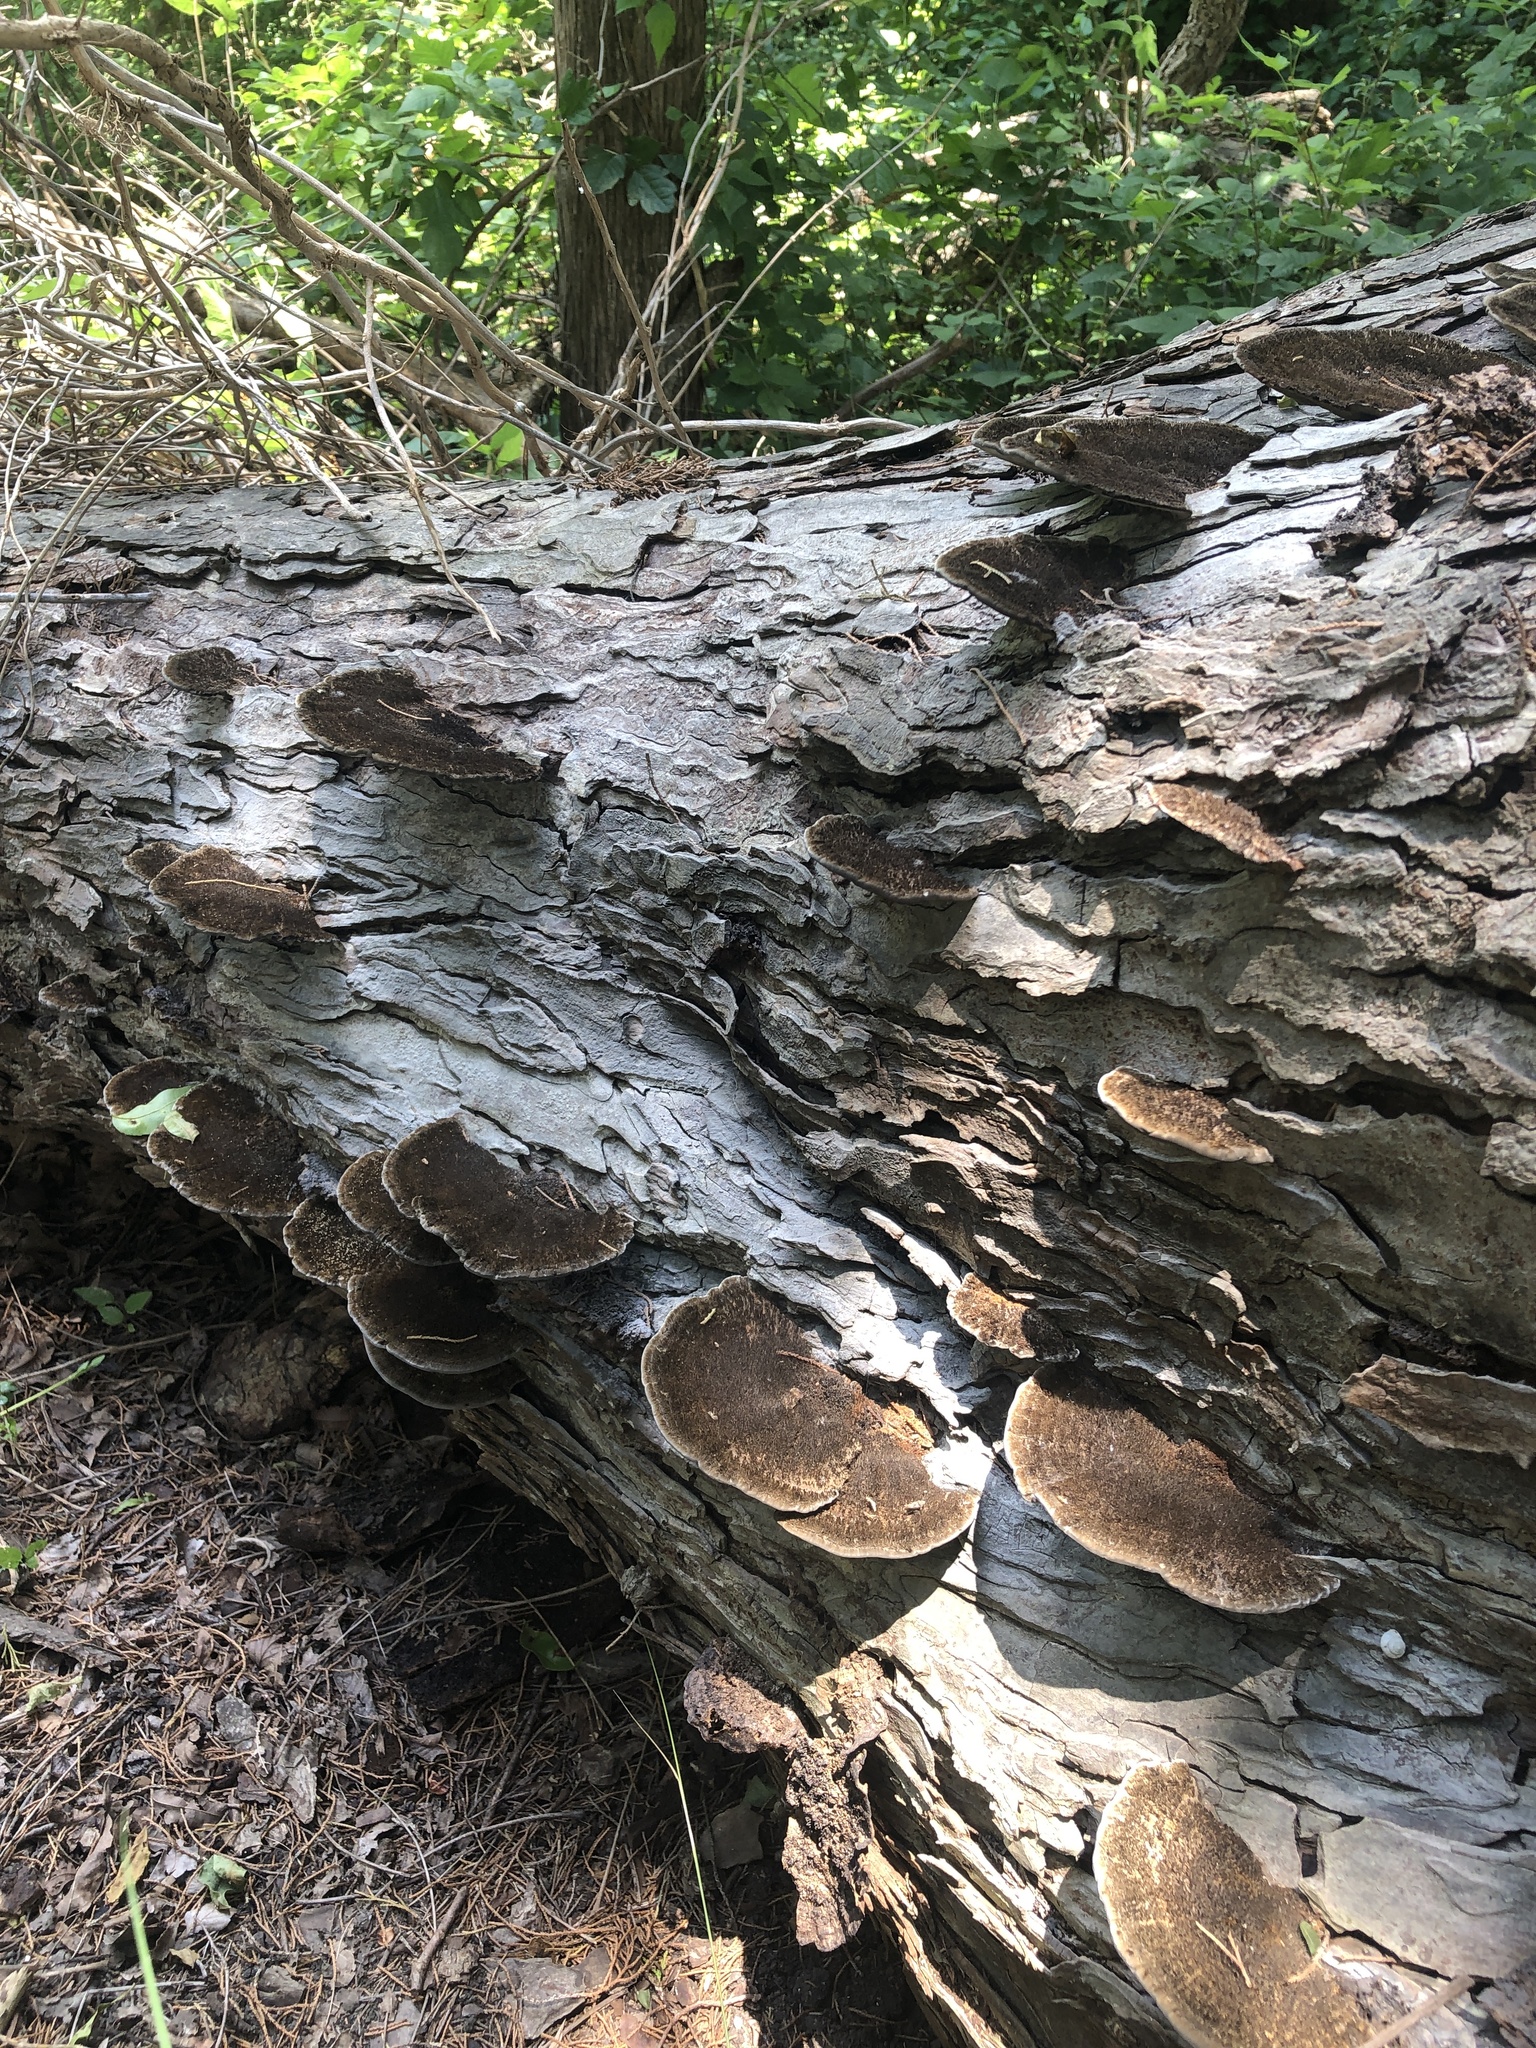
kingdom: Fungi
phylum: Basidiomycota
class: Agaricomycetes
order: Polyporales
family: Cerrenaceae
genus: Cerrena
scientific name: Cerrena hydnoides
